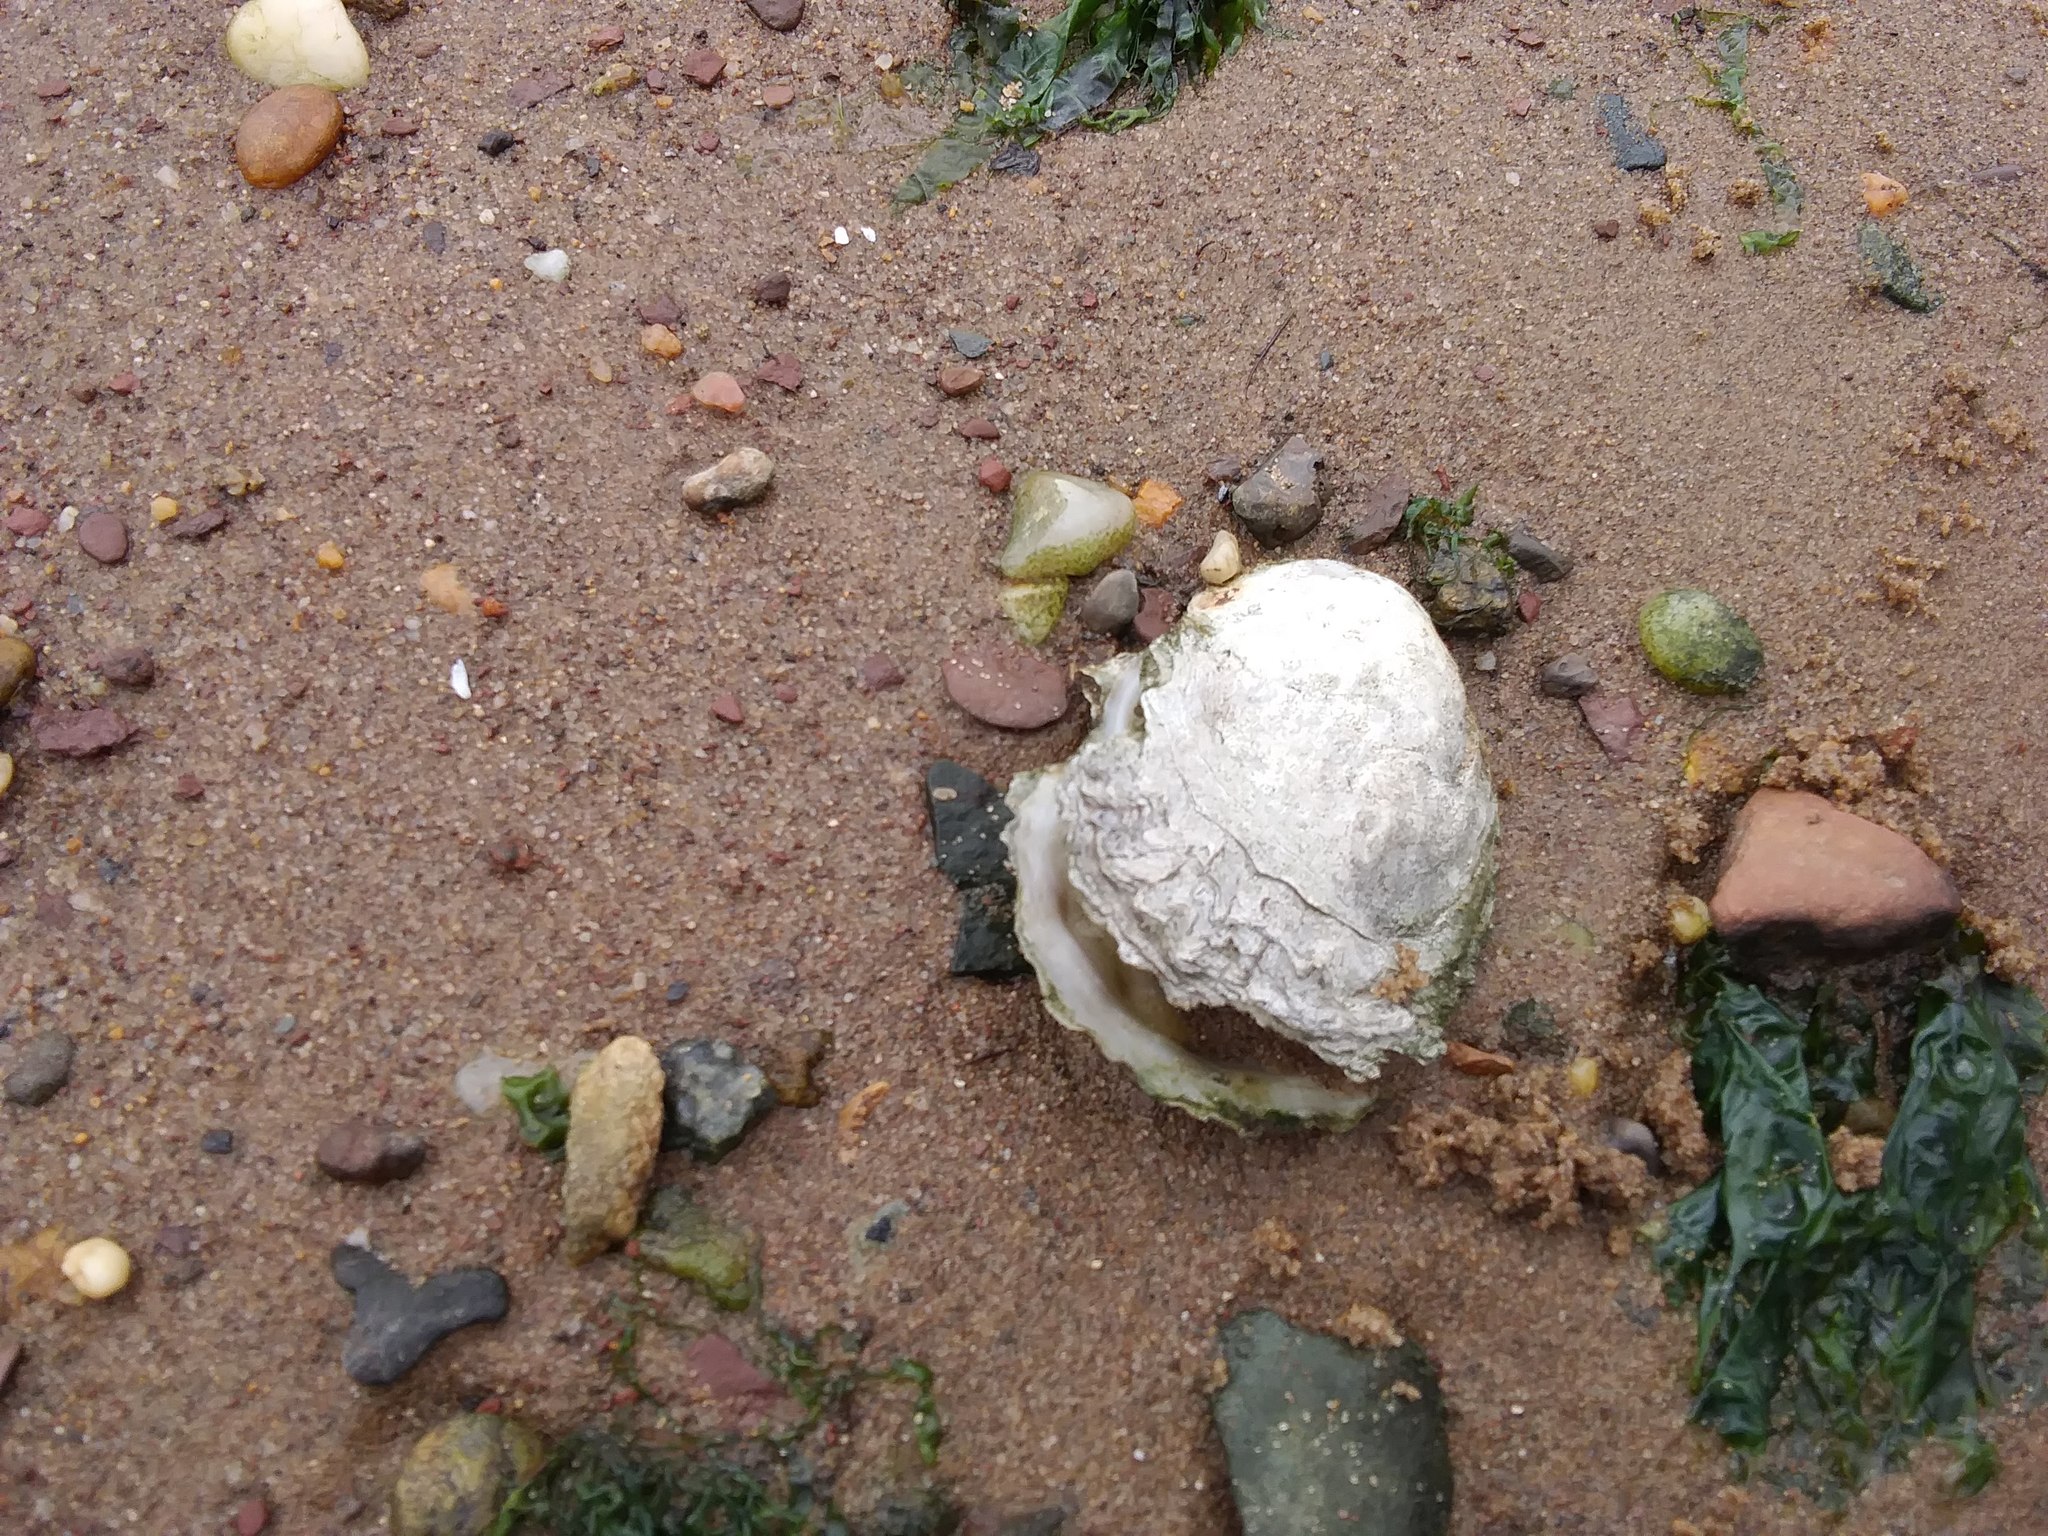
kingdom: Animalia
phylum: Mollusca
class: Bivalvia
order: Ostreida
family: Ostreidae
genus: Crassostrea
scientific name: Crassostrea virginica
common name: American oyster
